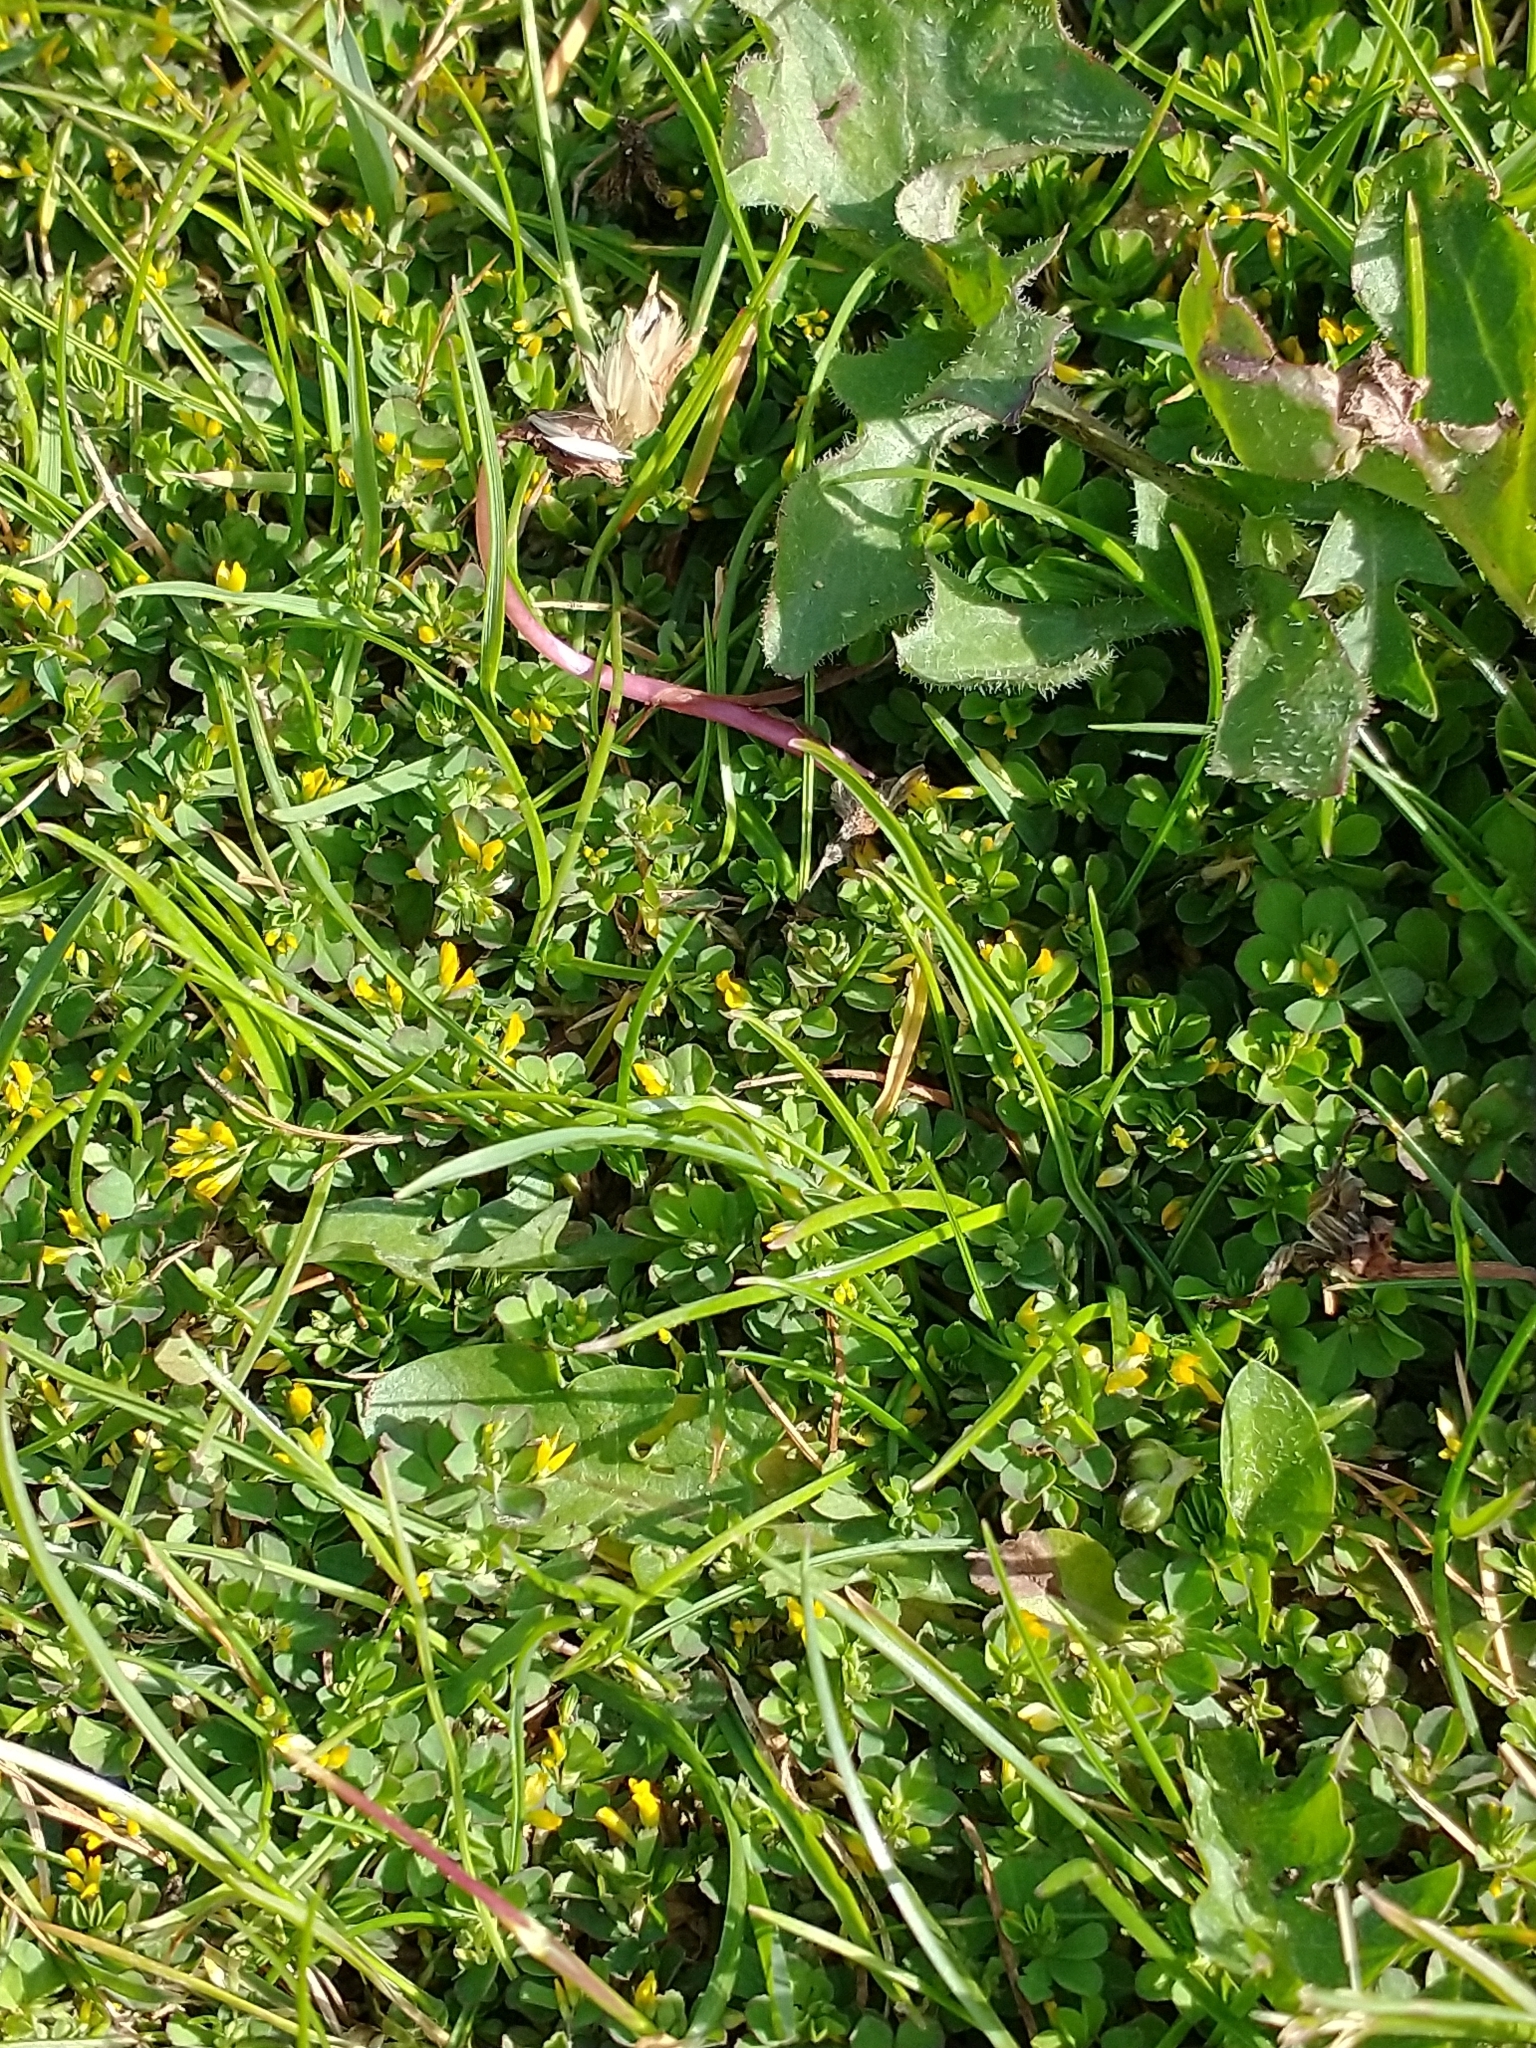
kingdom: Plantae
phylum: Tracheophyta
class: Magnoliopsida
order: Fabales
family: Fabaceae
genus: Trifolium
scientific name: Trifolium micranthum
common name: Slender trefoil
